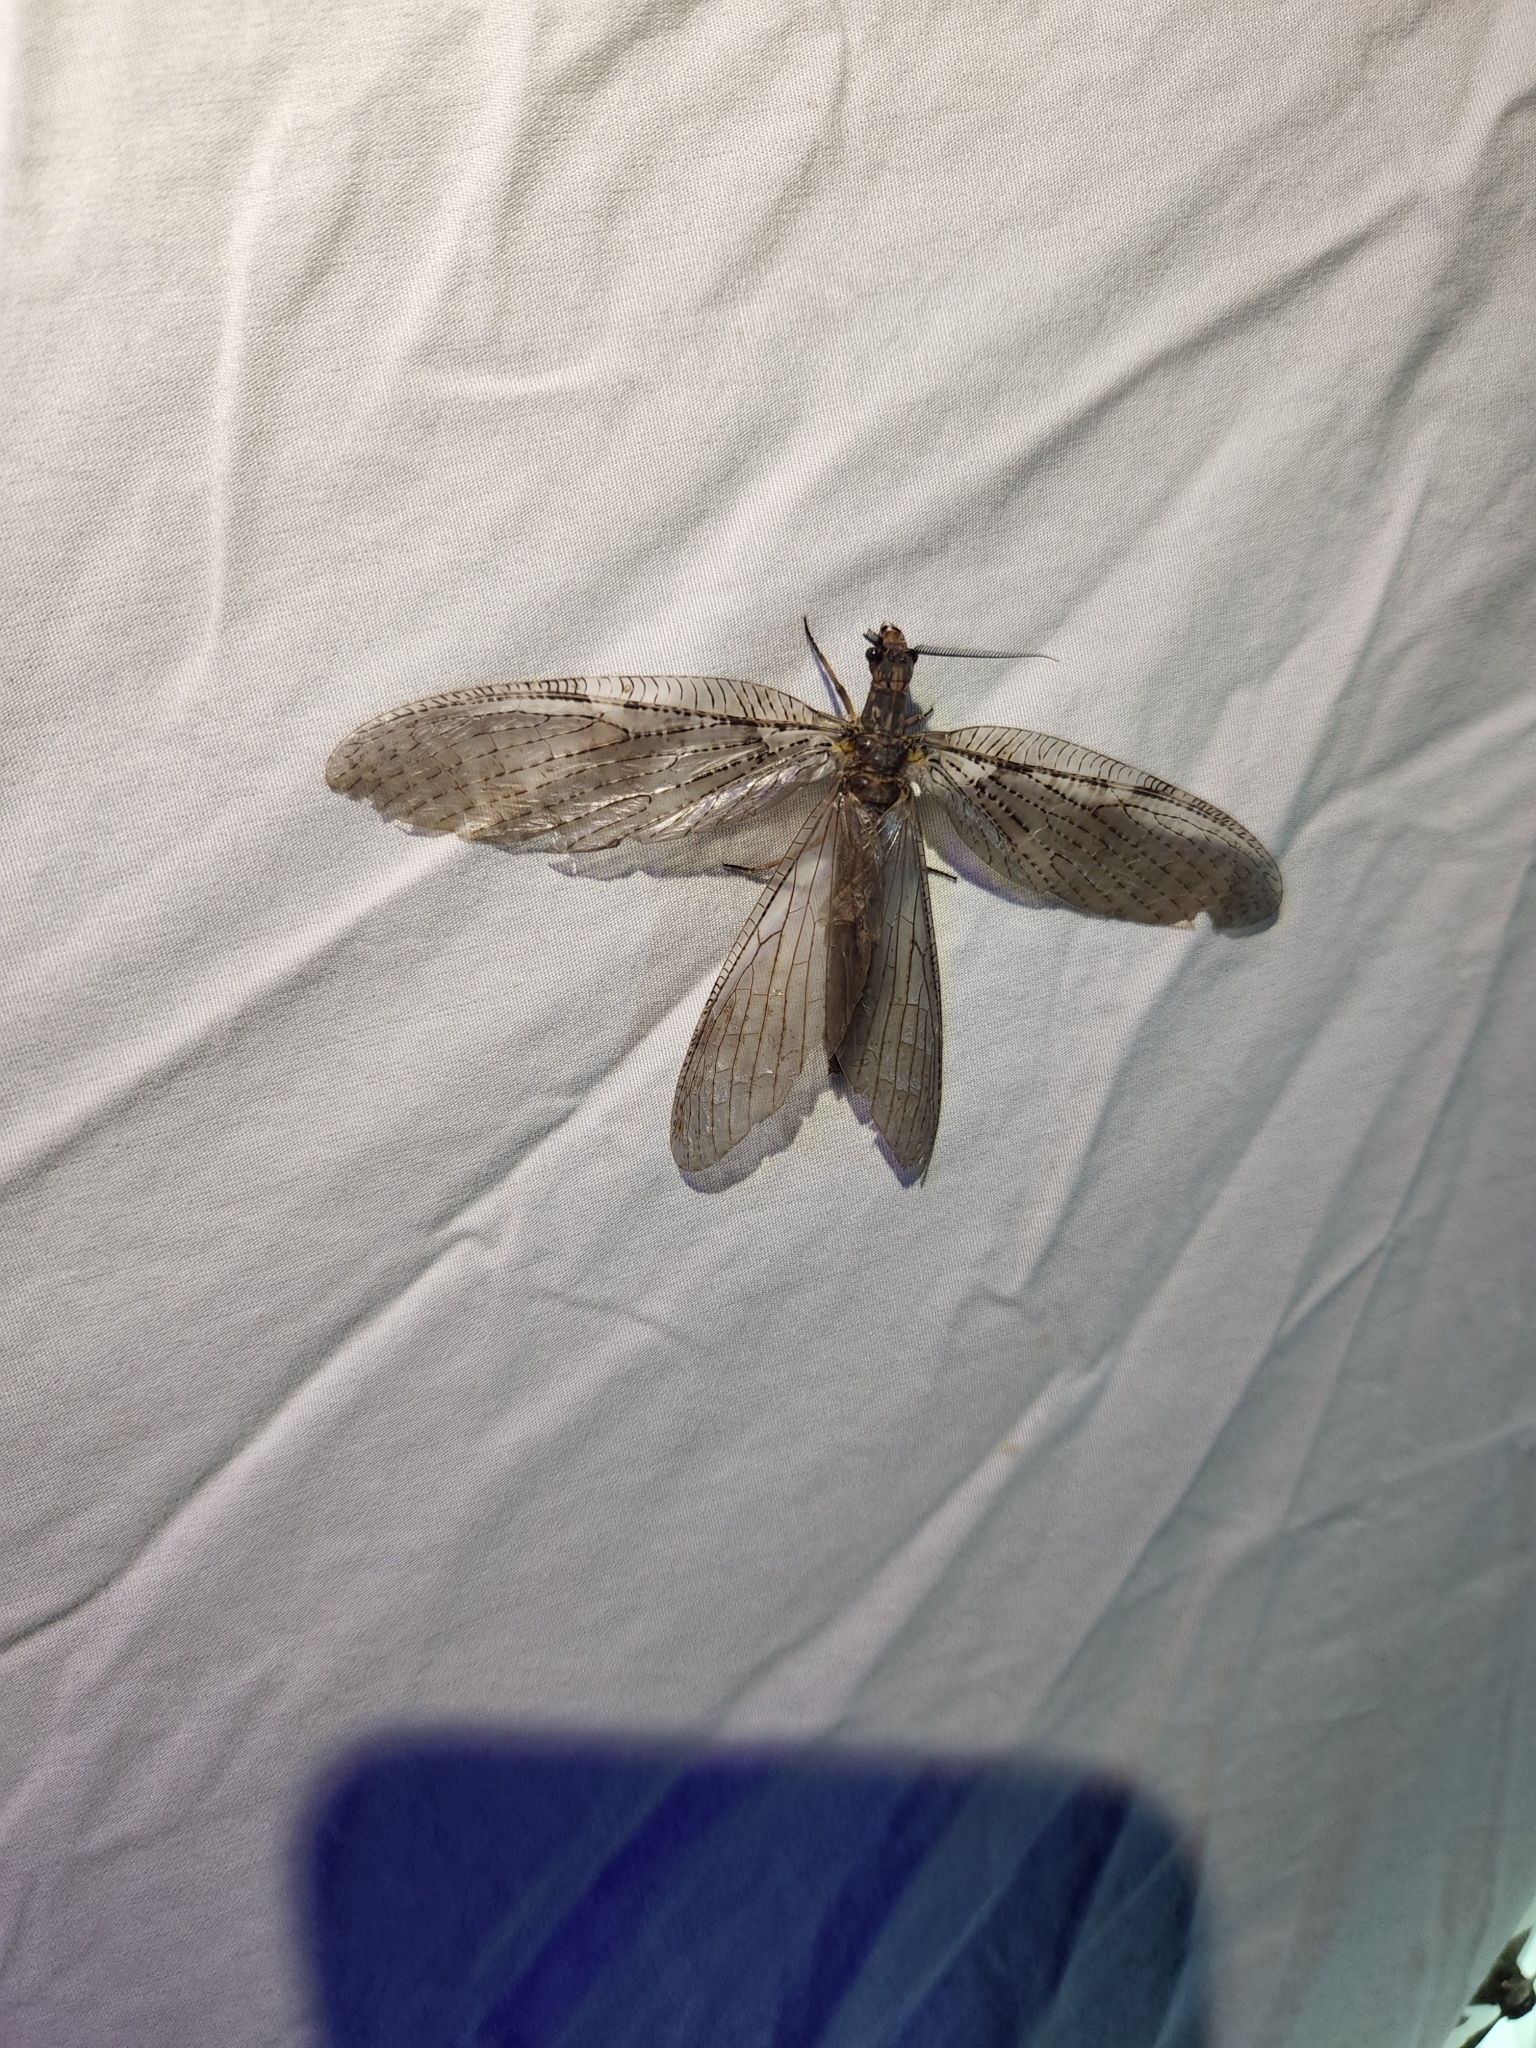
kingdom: Animalia
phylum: Arthropoda
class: Insecta
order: Megaloptera
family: Corydalidae
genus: Chauliodes
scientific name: Chauliodes pectinicornis
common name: Summer fishfly
